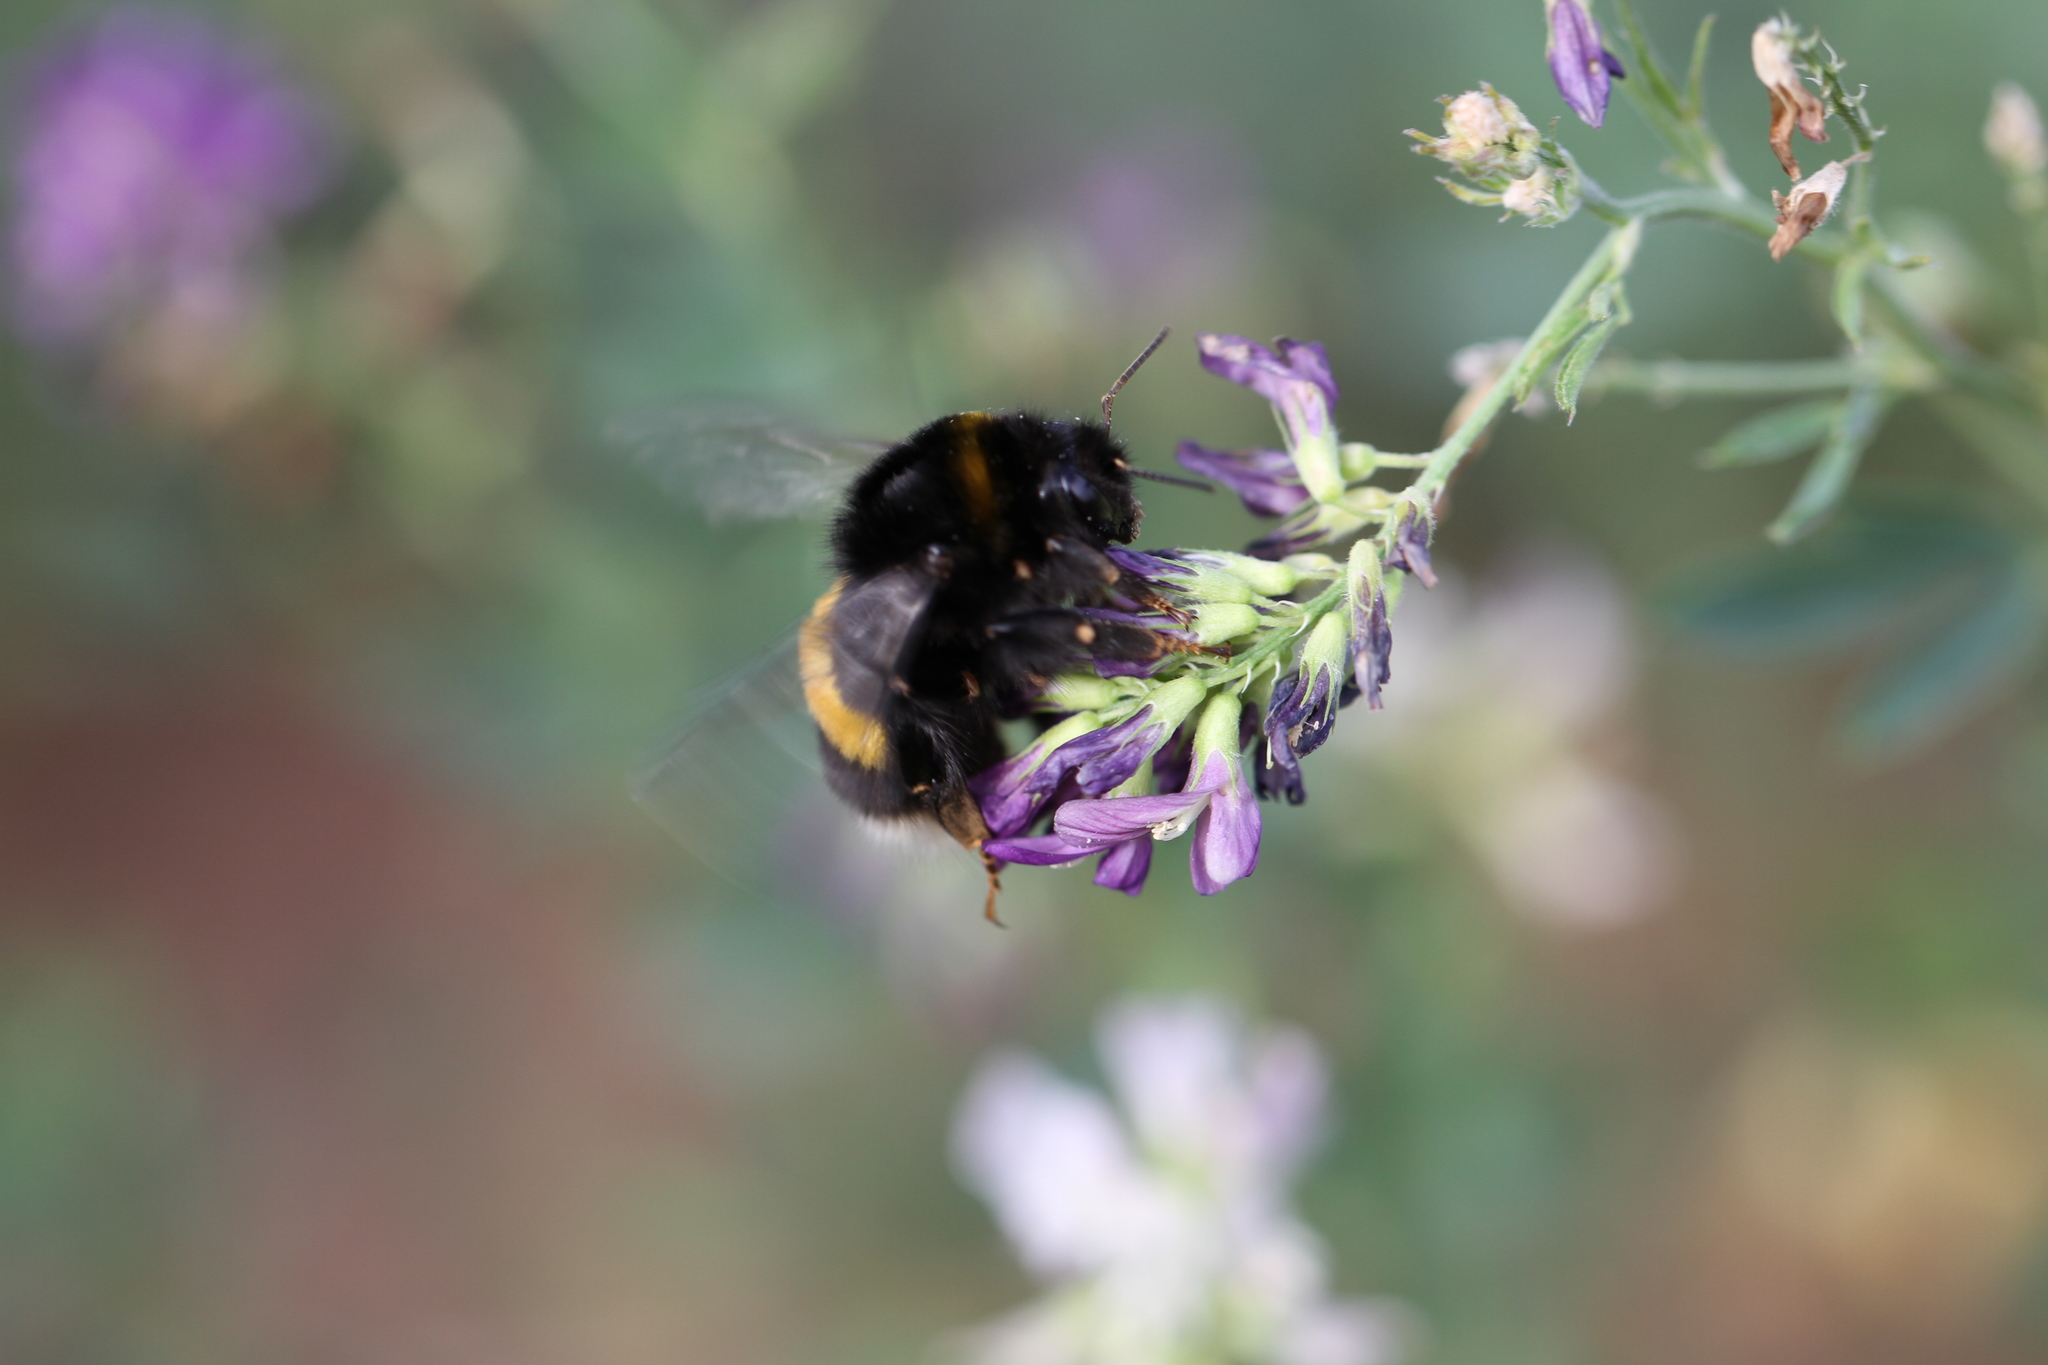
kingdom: Animalia
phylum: Arthropoda
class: Insecta
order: Hymenoptera
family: Apidae
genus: Bombus
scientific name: Bombus terrestris
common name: Buff-tailed bumblebee
